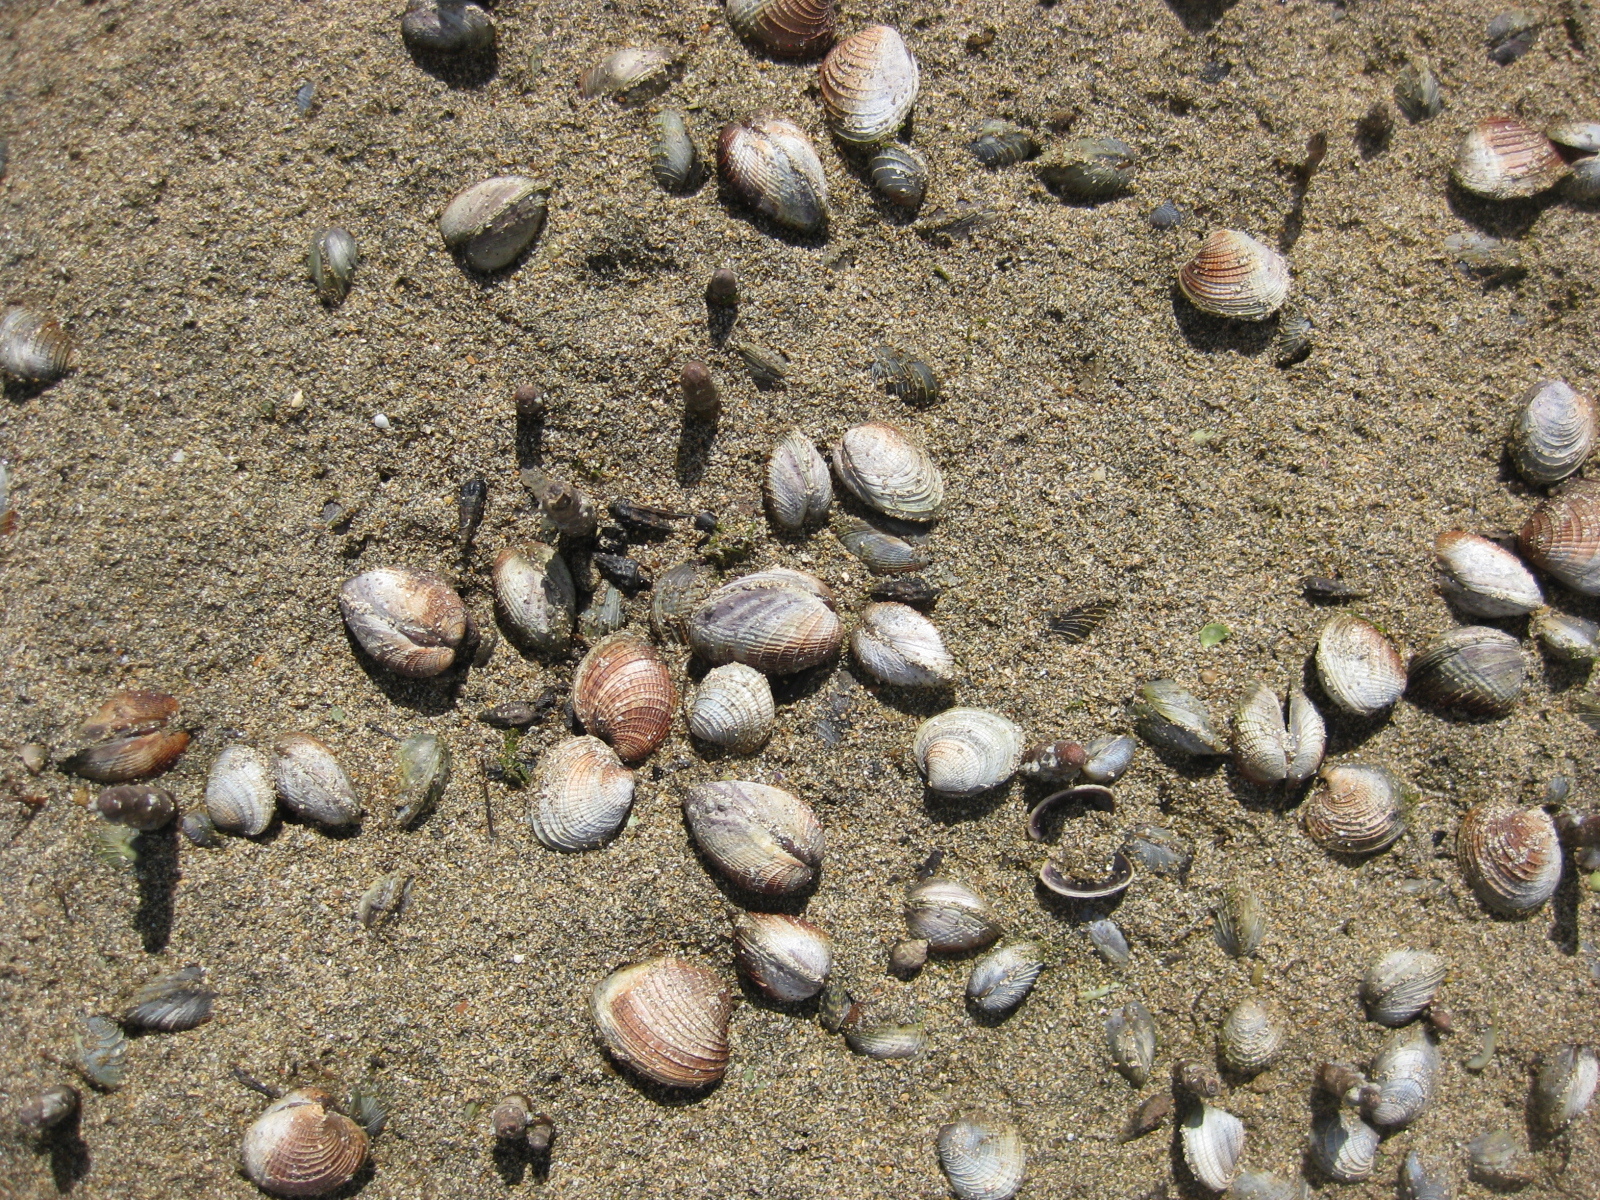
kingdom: Animalia
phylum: Mollusca
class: Bivalvia
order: Venerida
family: Veneridae
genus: Austrovenus
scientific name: Austrovenus stutchburyi
